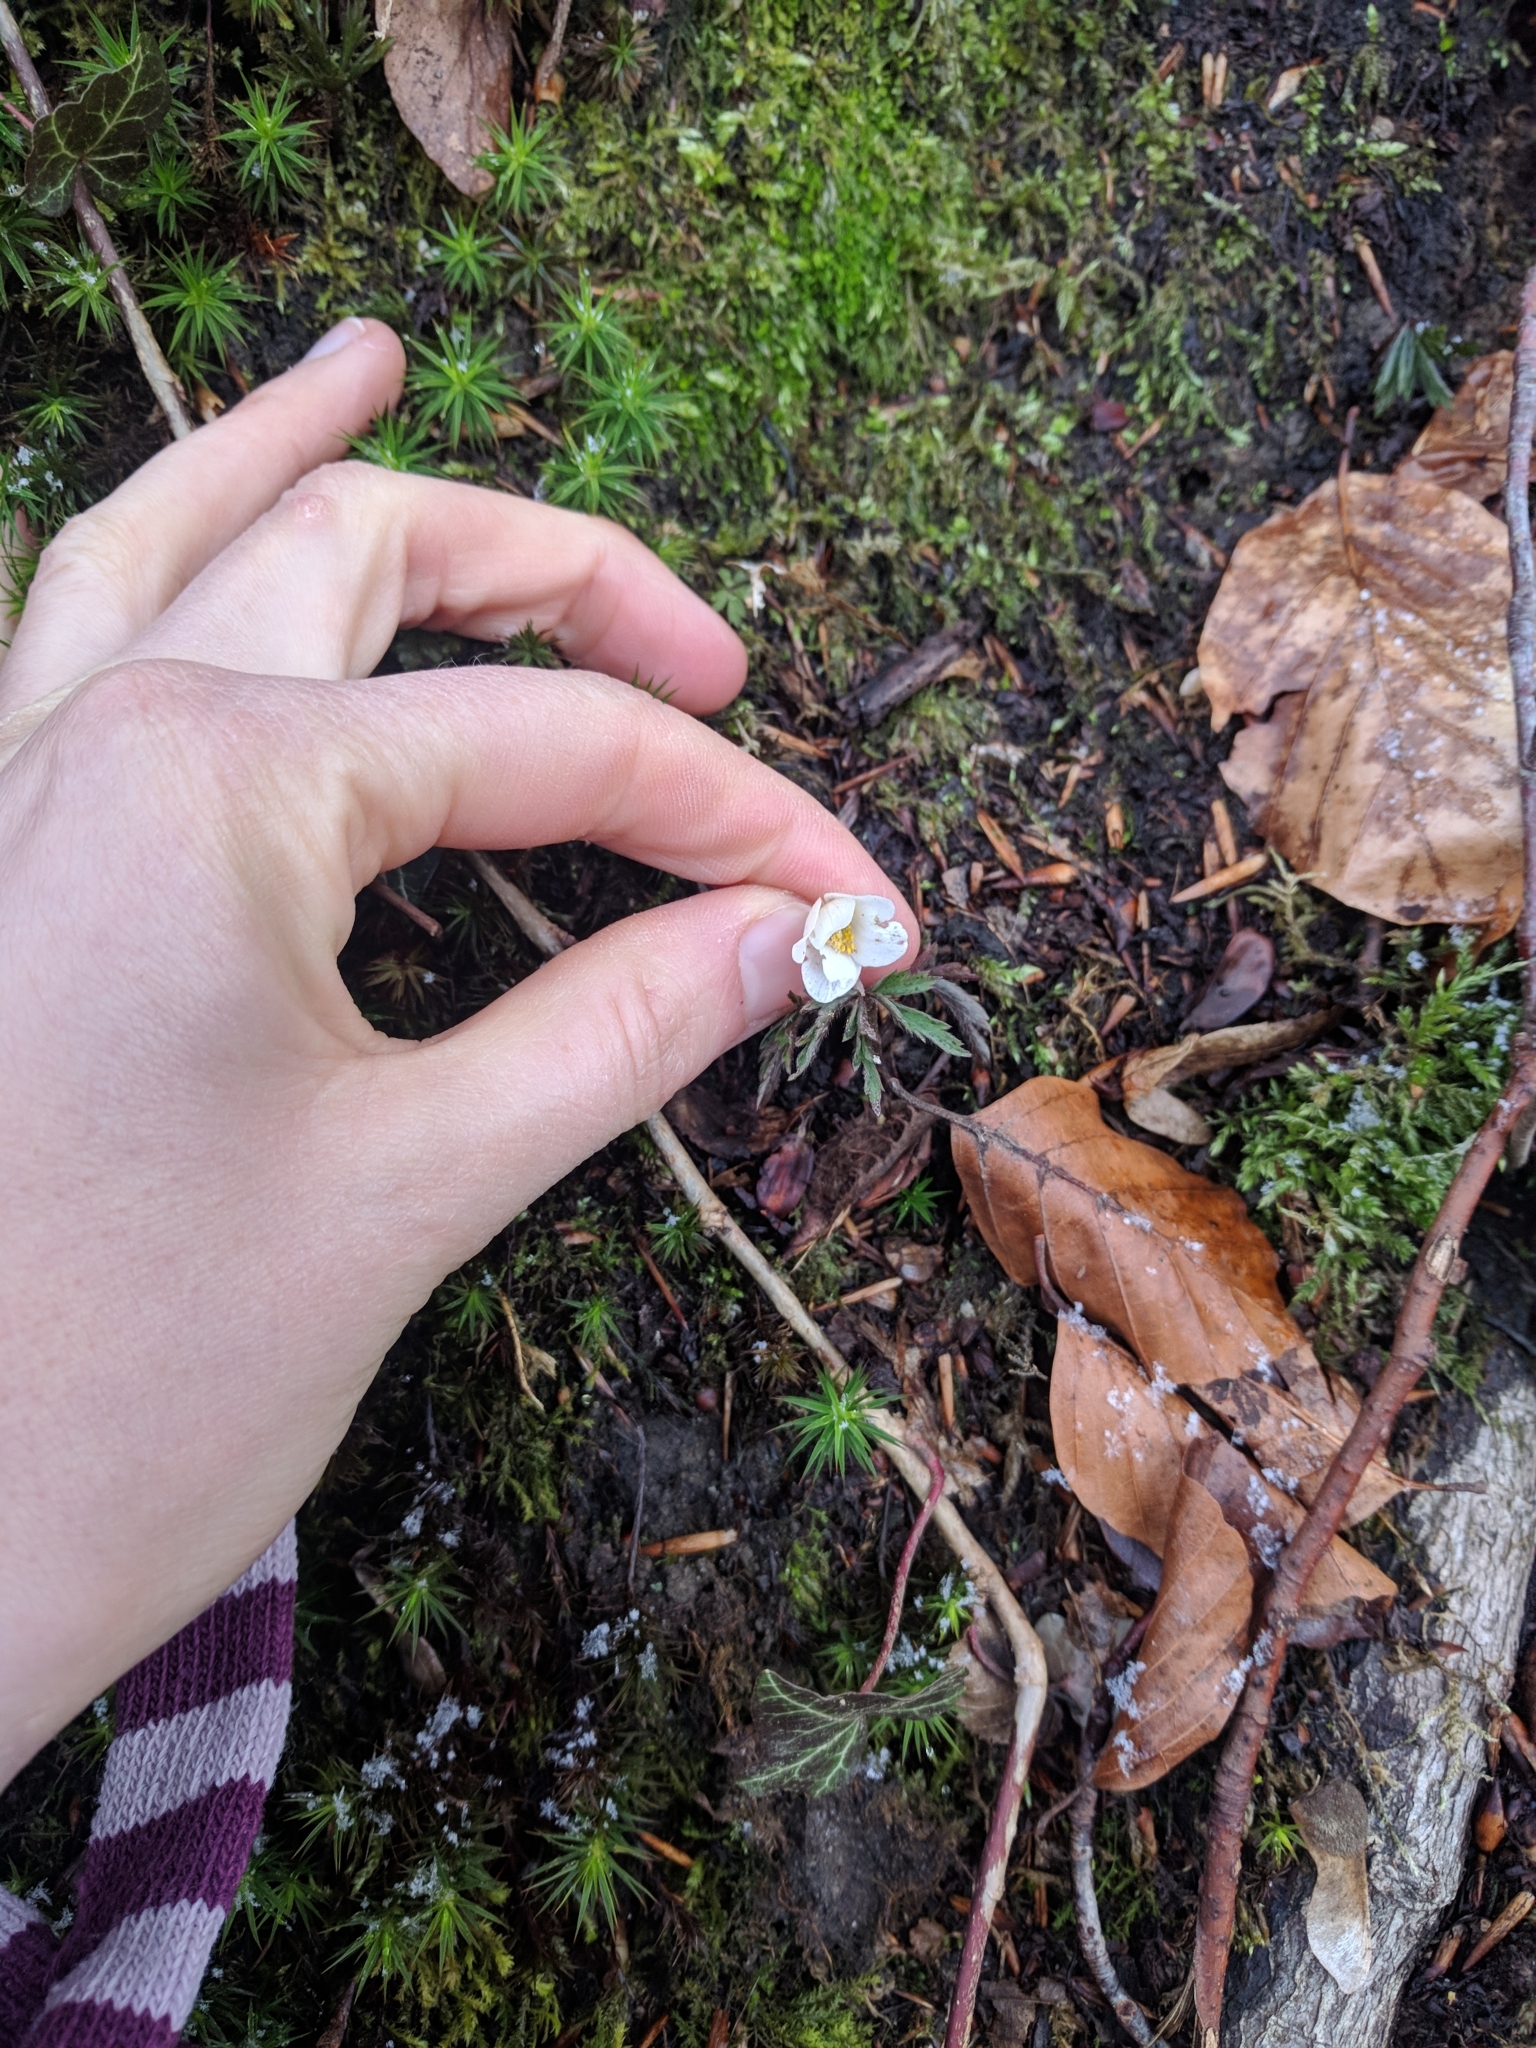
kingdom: Plantae
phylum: Tracheophyta
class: Magnoliopsida
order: Ranunculales
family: Ranunculaceae
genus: Anemone
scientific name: Anemone nemorosa
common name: Wood anemone
